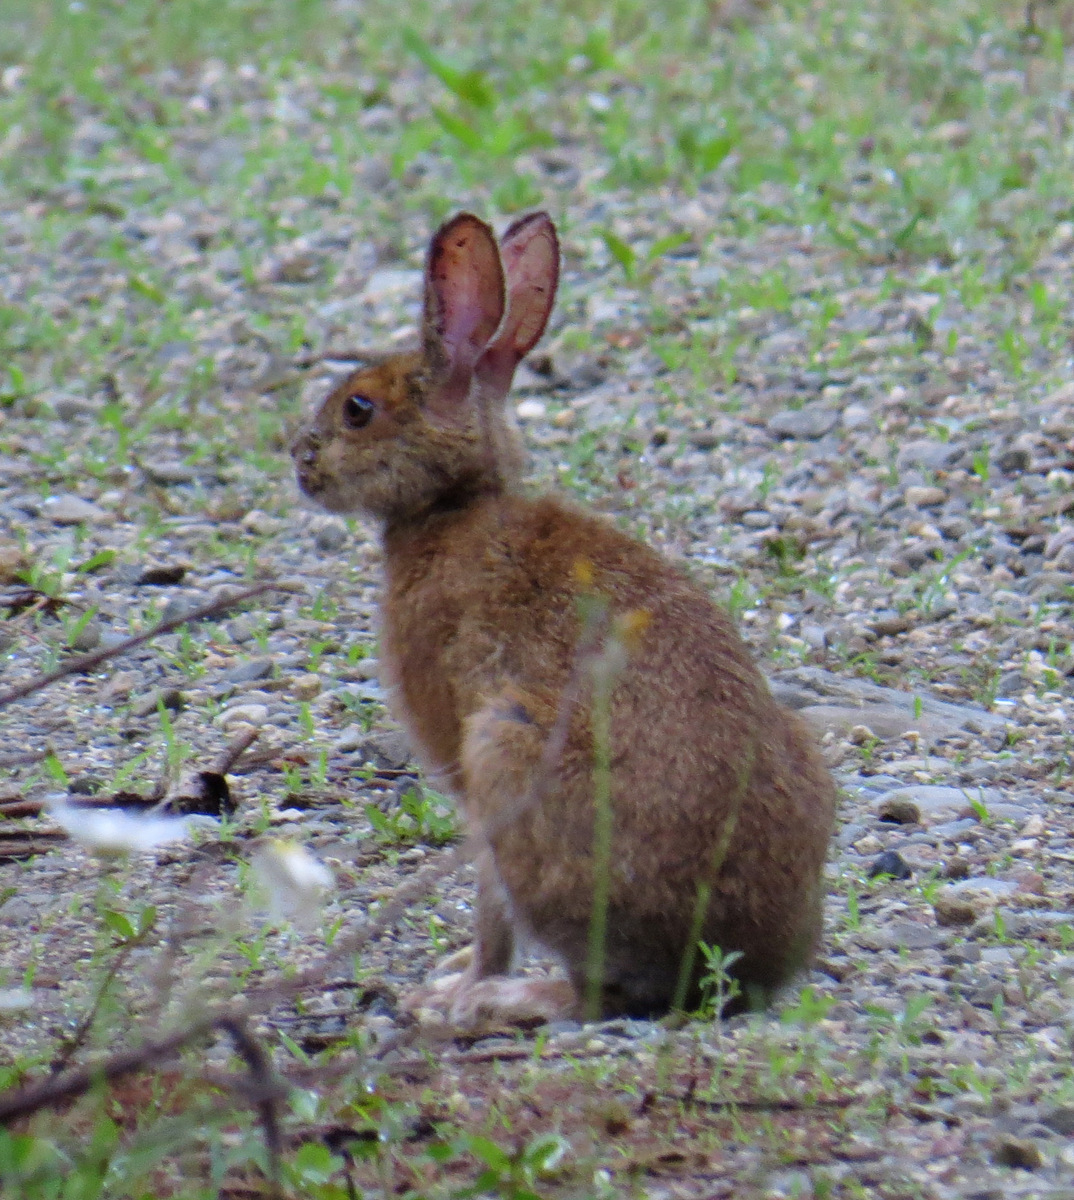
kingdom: Animalia
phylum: Chordata
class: Mammalia
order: Lagomorpha
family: Leporidae
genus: Lepus
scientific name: Lepus americanus
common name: Snowshoe hare
